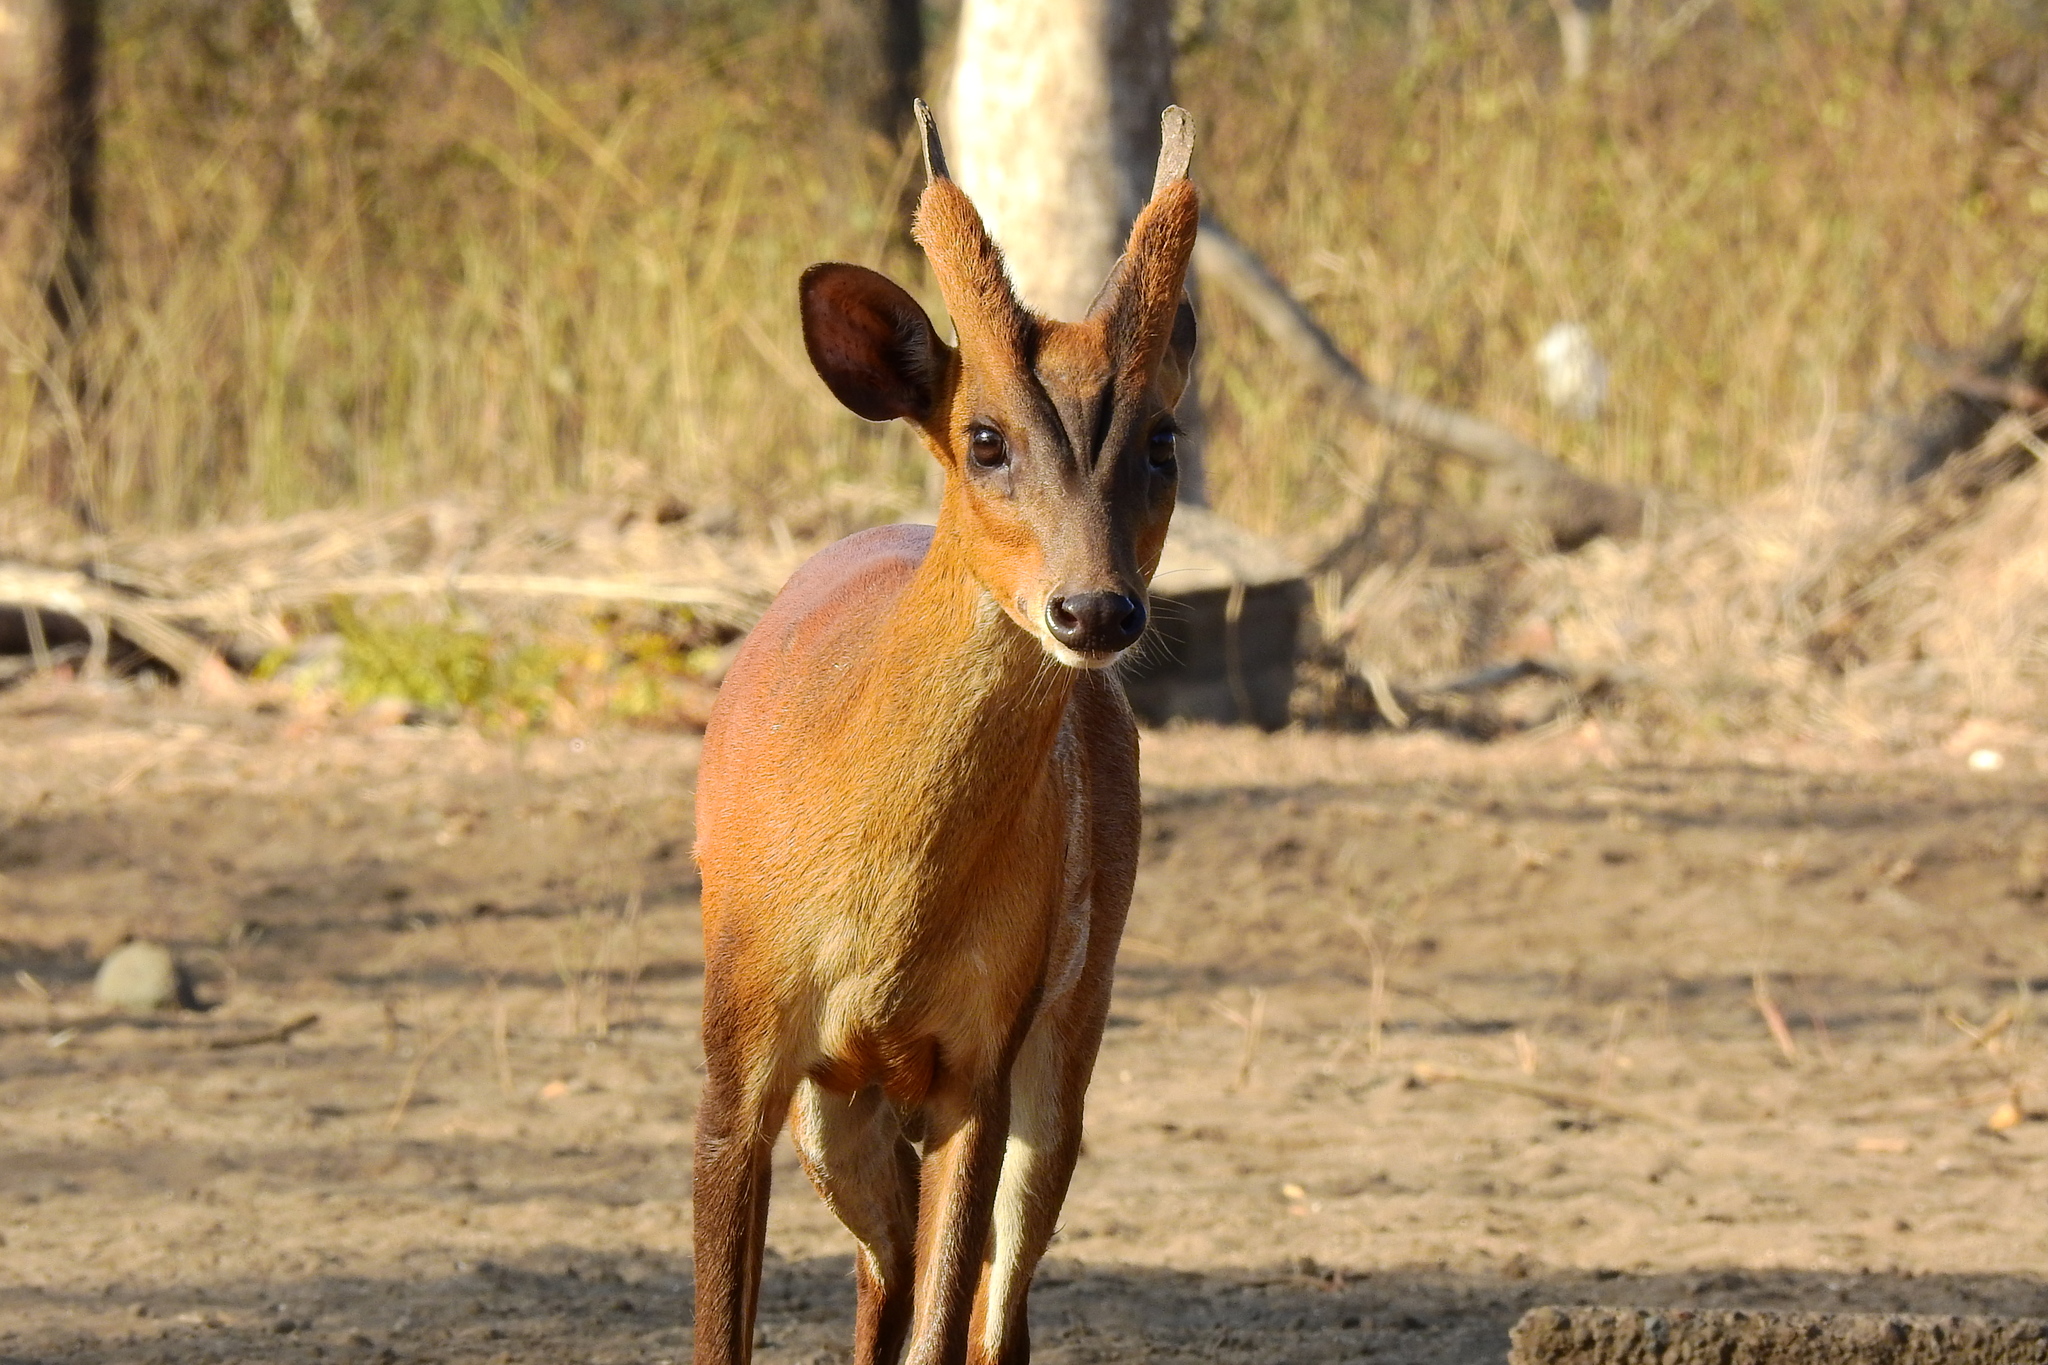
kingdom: Animalia
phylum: Chordata
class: Mammalia
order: Artiodactyla
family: Cervidae
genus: Muntiacus
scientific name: Muntiacus muntjak
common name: Indian muntjac
